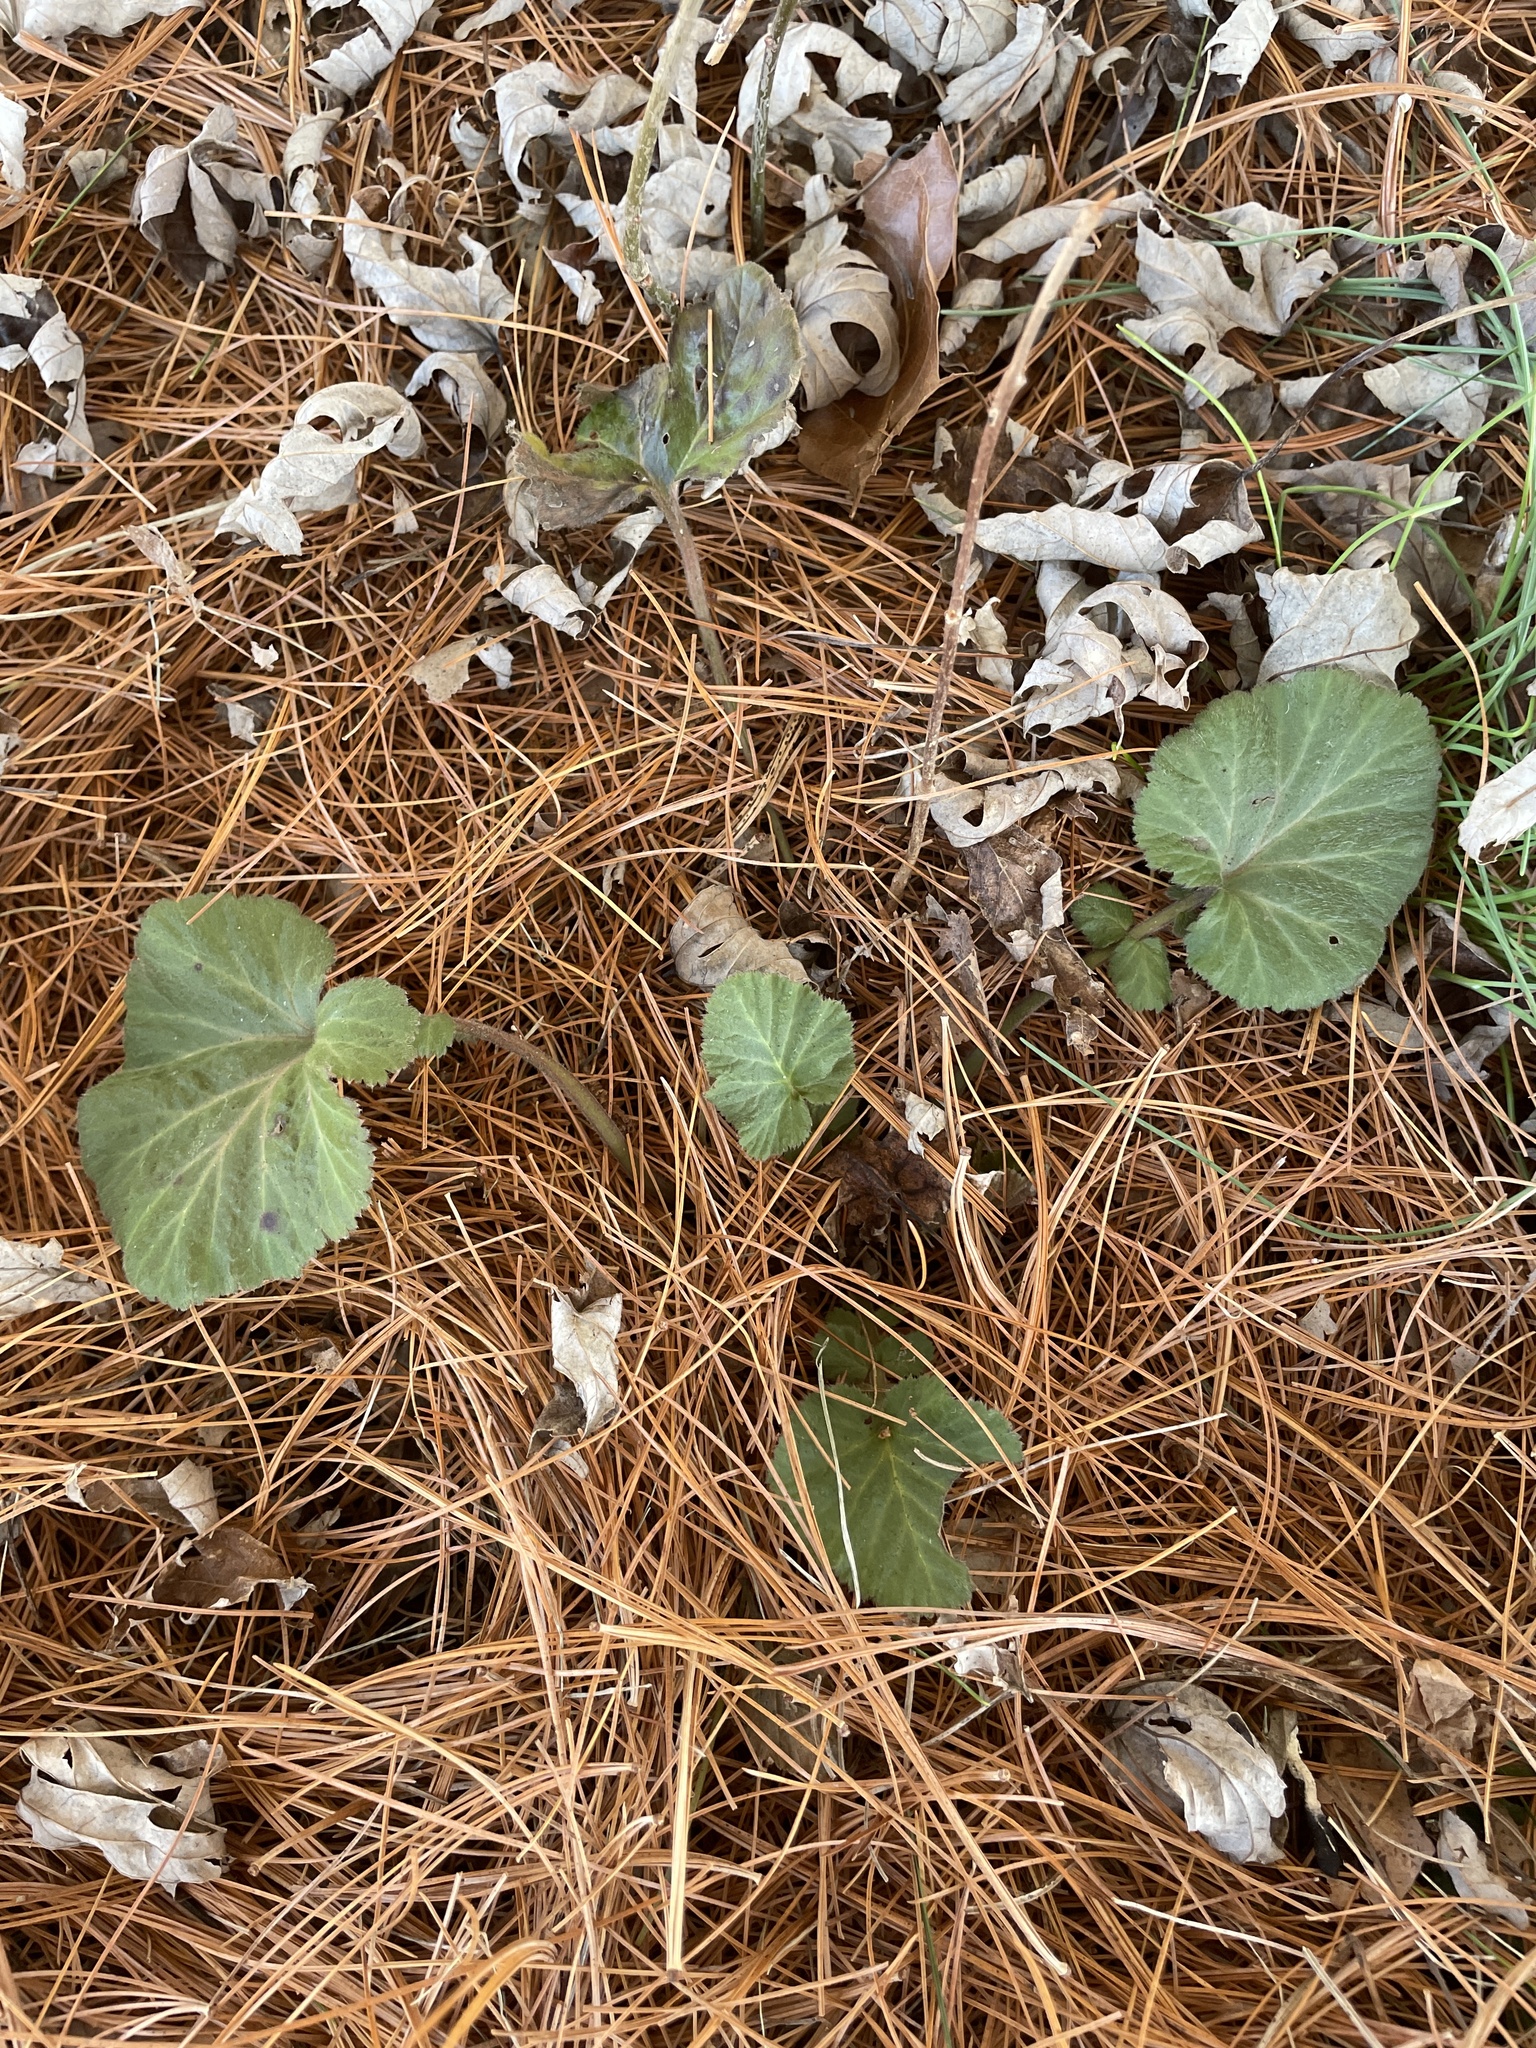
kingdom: Plantae
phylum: Tracheophyta
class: Magnoliopsida
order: Rosales
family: Rosaceae
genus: Geum
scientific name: Geum canadense
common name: White avens
